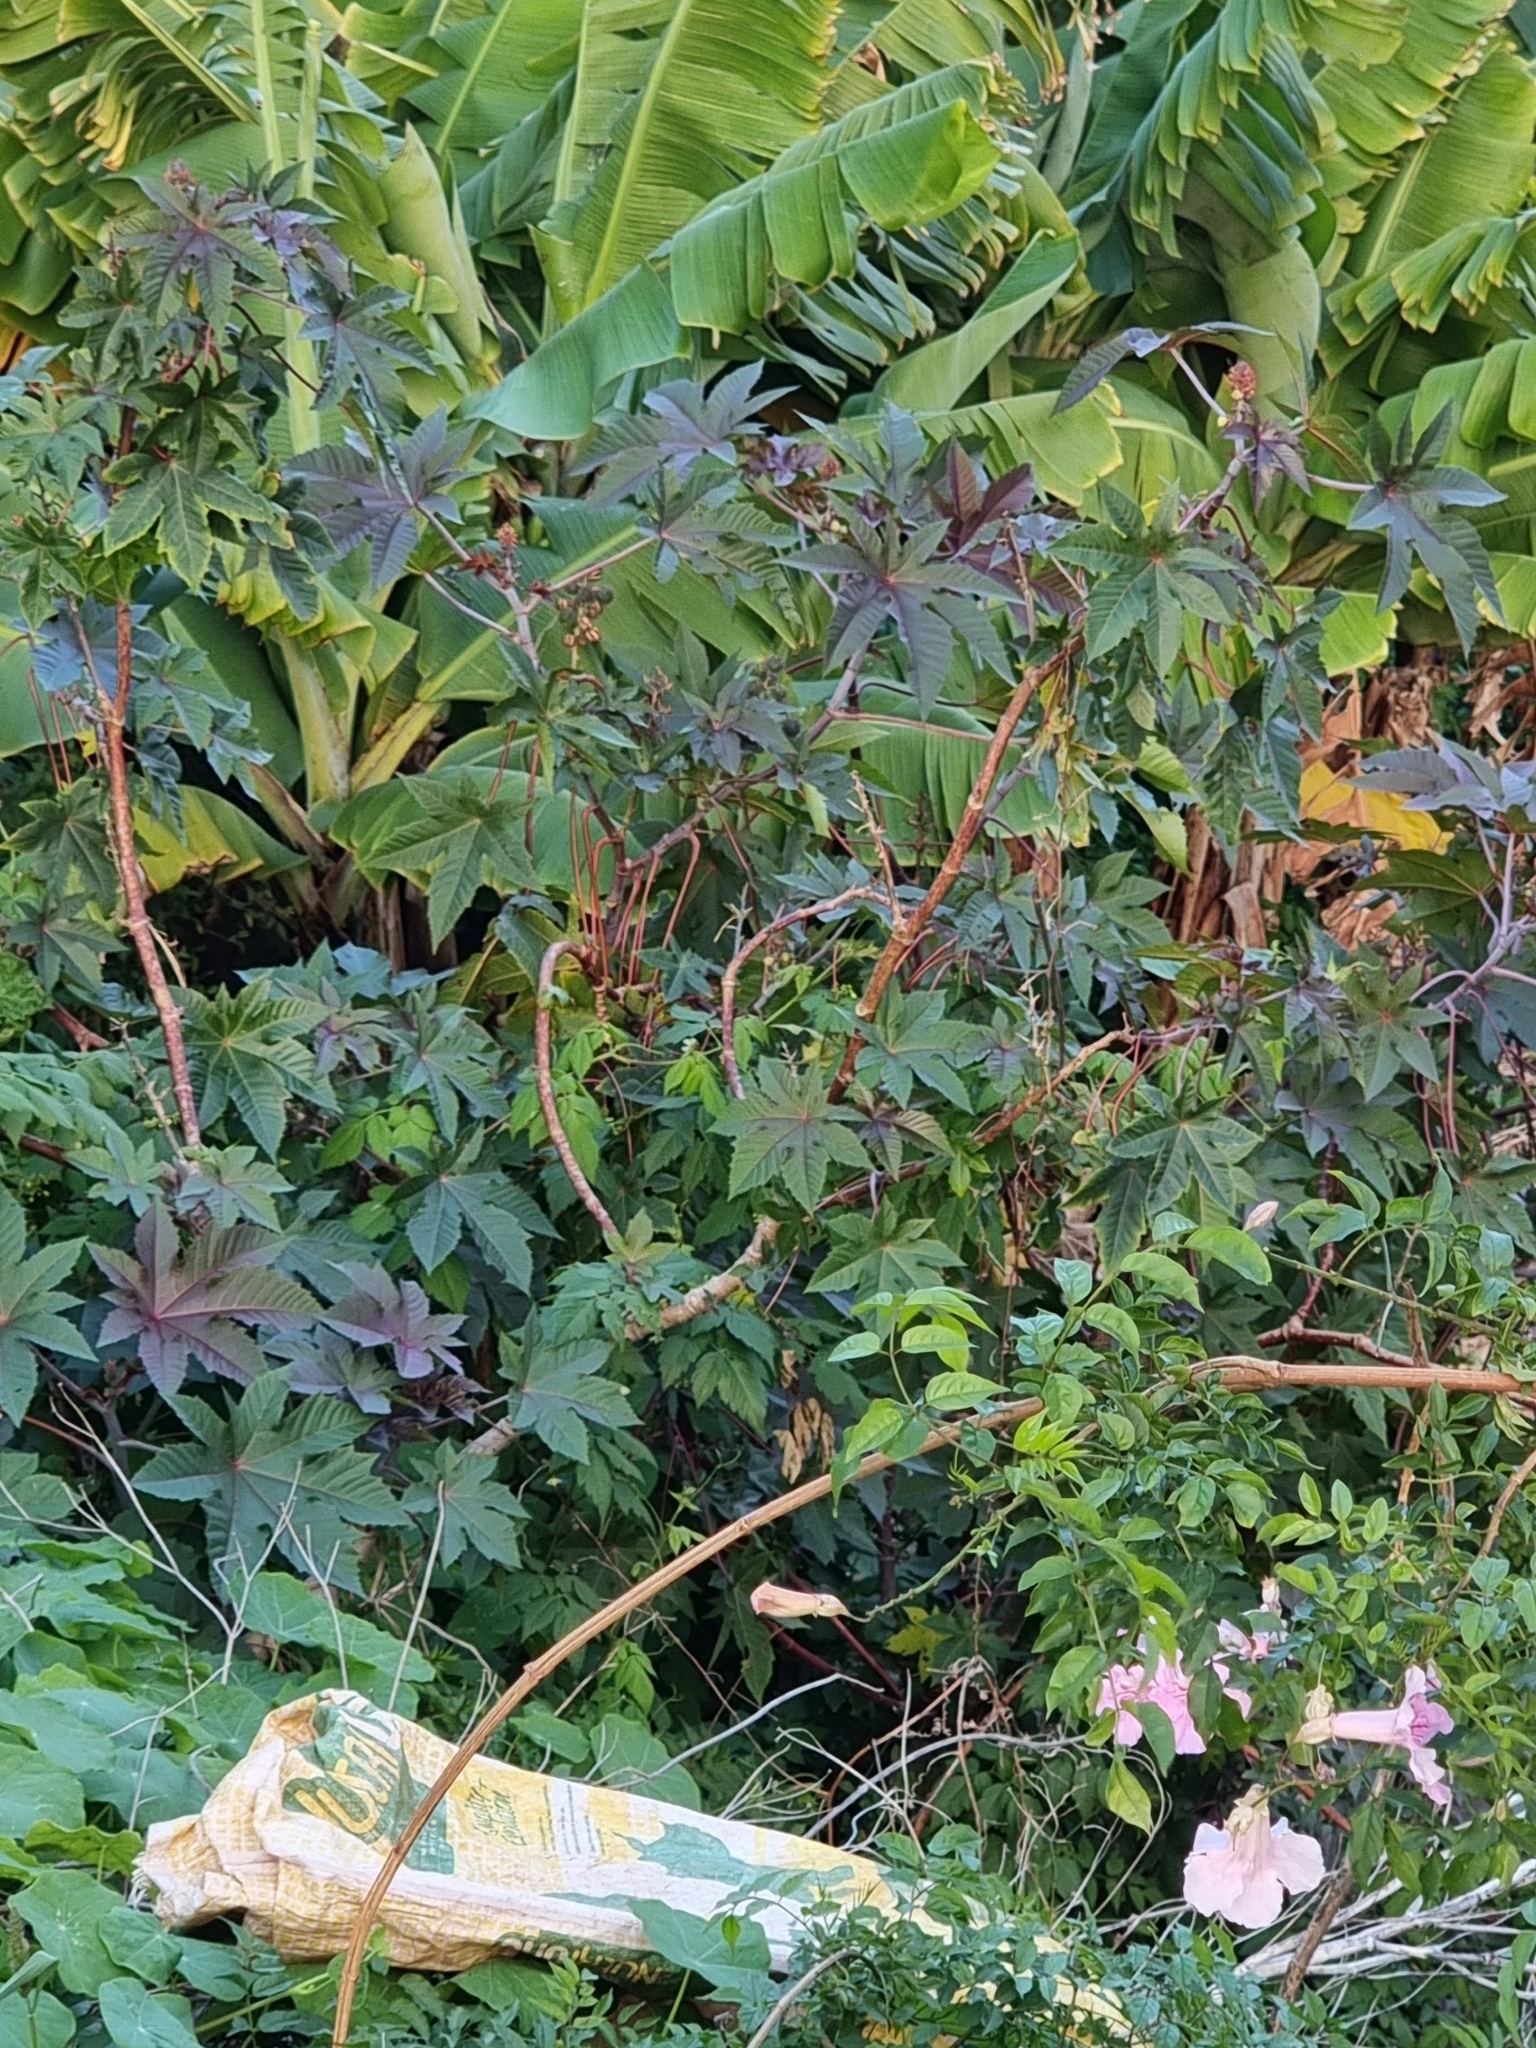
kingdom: Plantae
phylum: Tracheophyta
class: Magnoliopsida
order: Malpighiales
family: Euphorbiaceae
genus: Ricinus
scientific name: Ricinus communis
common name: Castor-oil-plant
